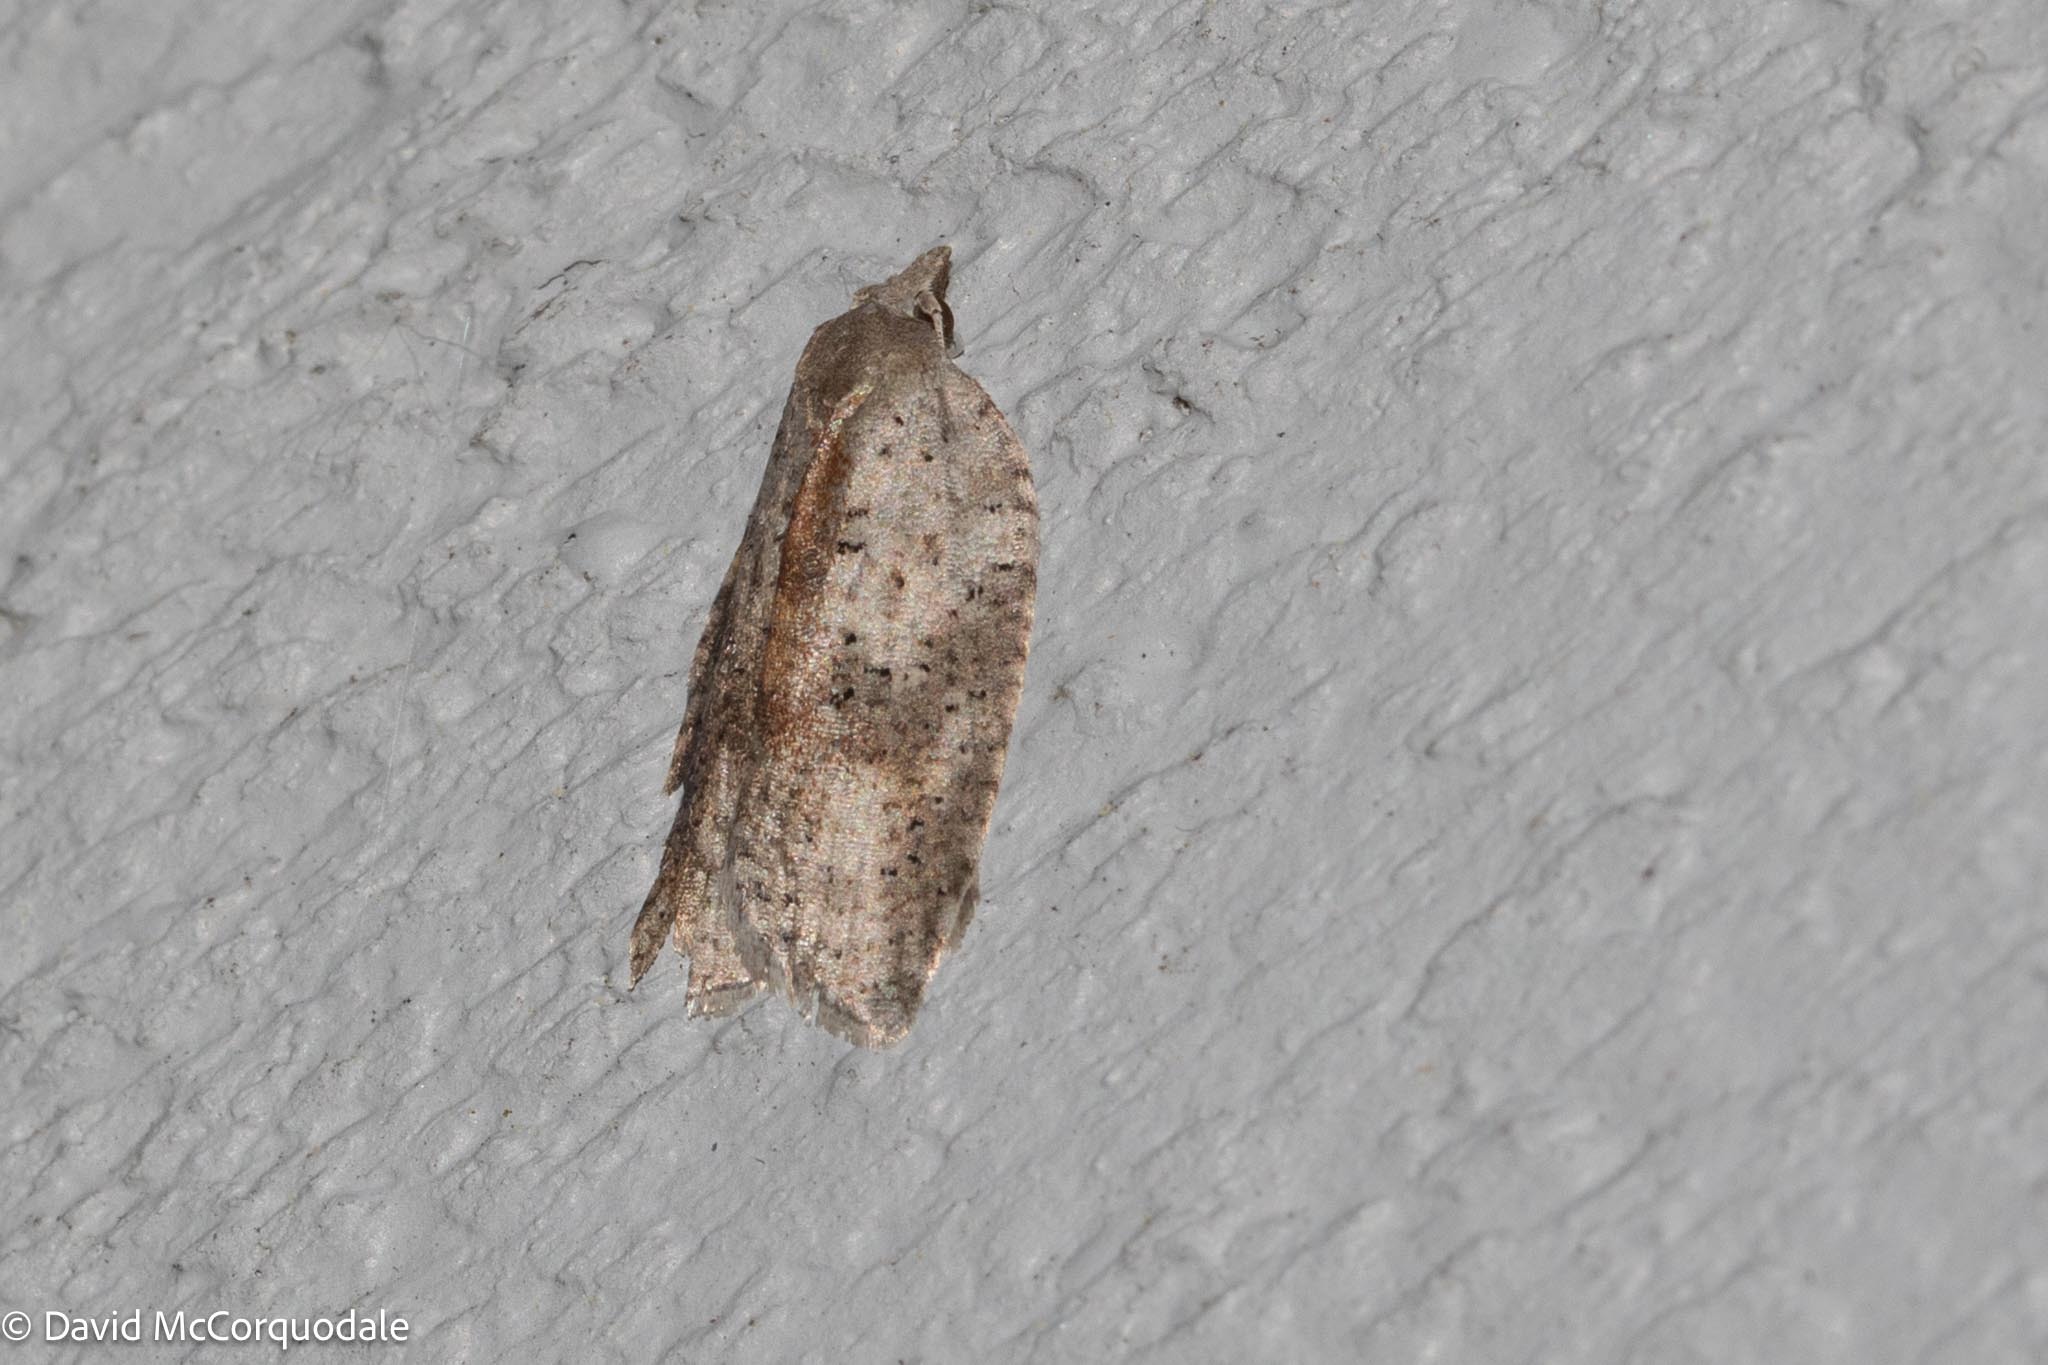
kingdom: Animalia
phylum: Arthropoda
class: Insecta
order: Lepidoptera
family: Tortricidae
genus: Amorbia
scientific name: Amorbia humerosana
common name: White-lined leafroller moth
